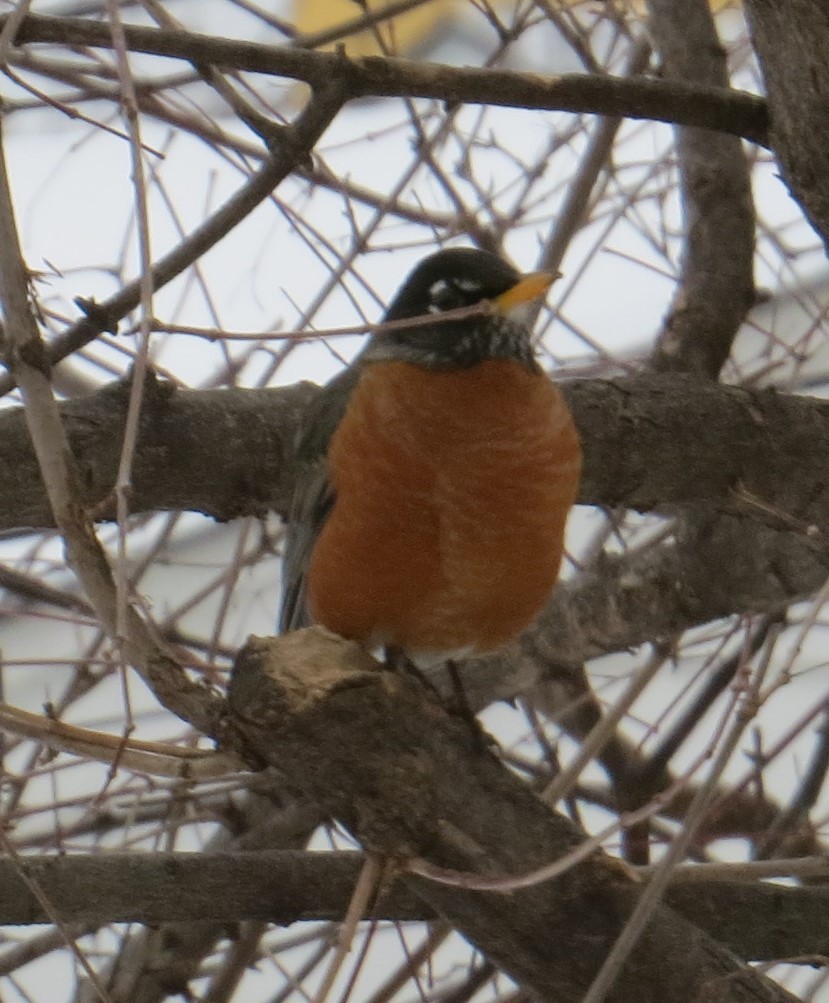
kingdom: Animalia
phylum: Chordata
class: Aves
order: Passeriformes
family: Turdidae
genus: Turdus
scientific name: Turdus migratorius
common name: American robin
